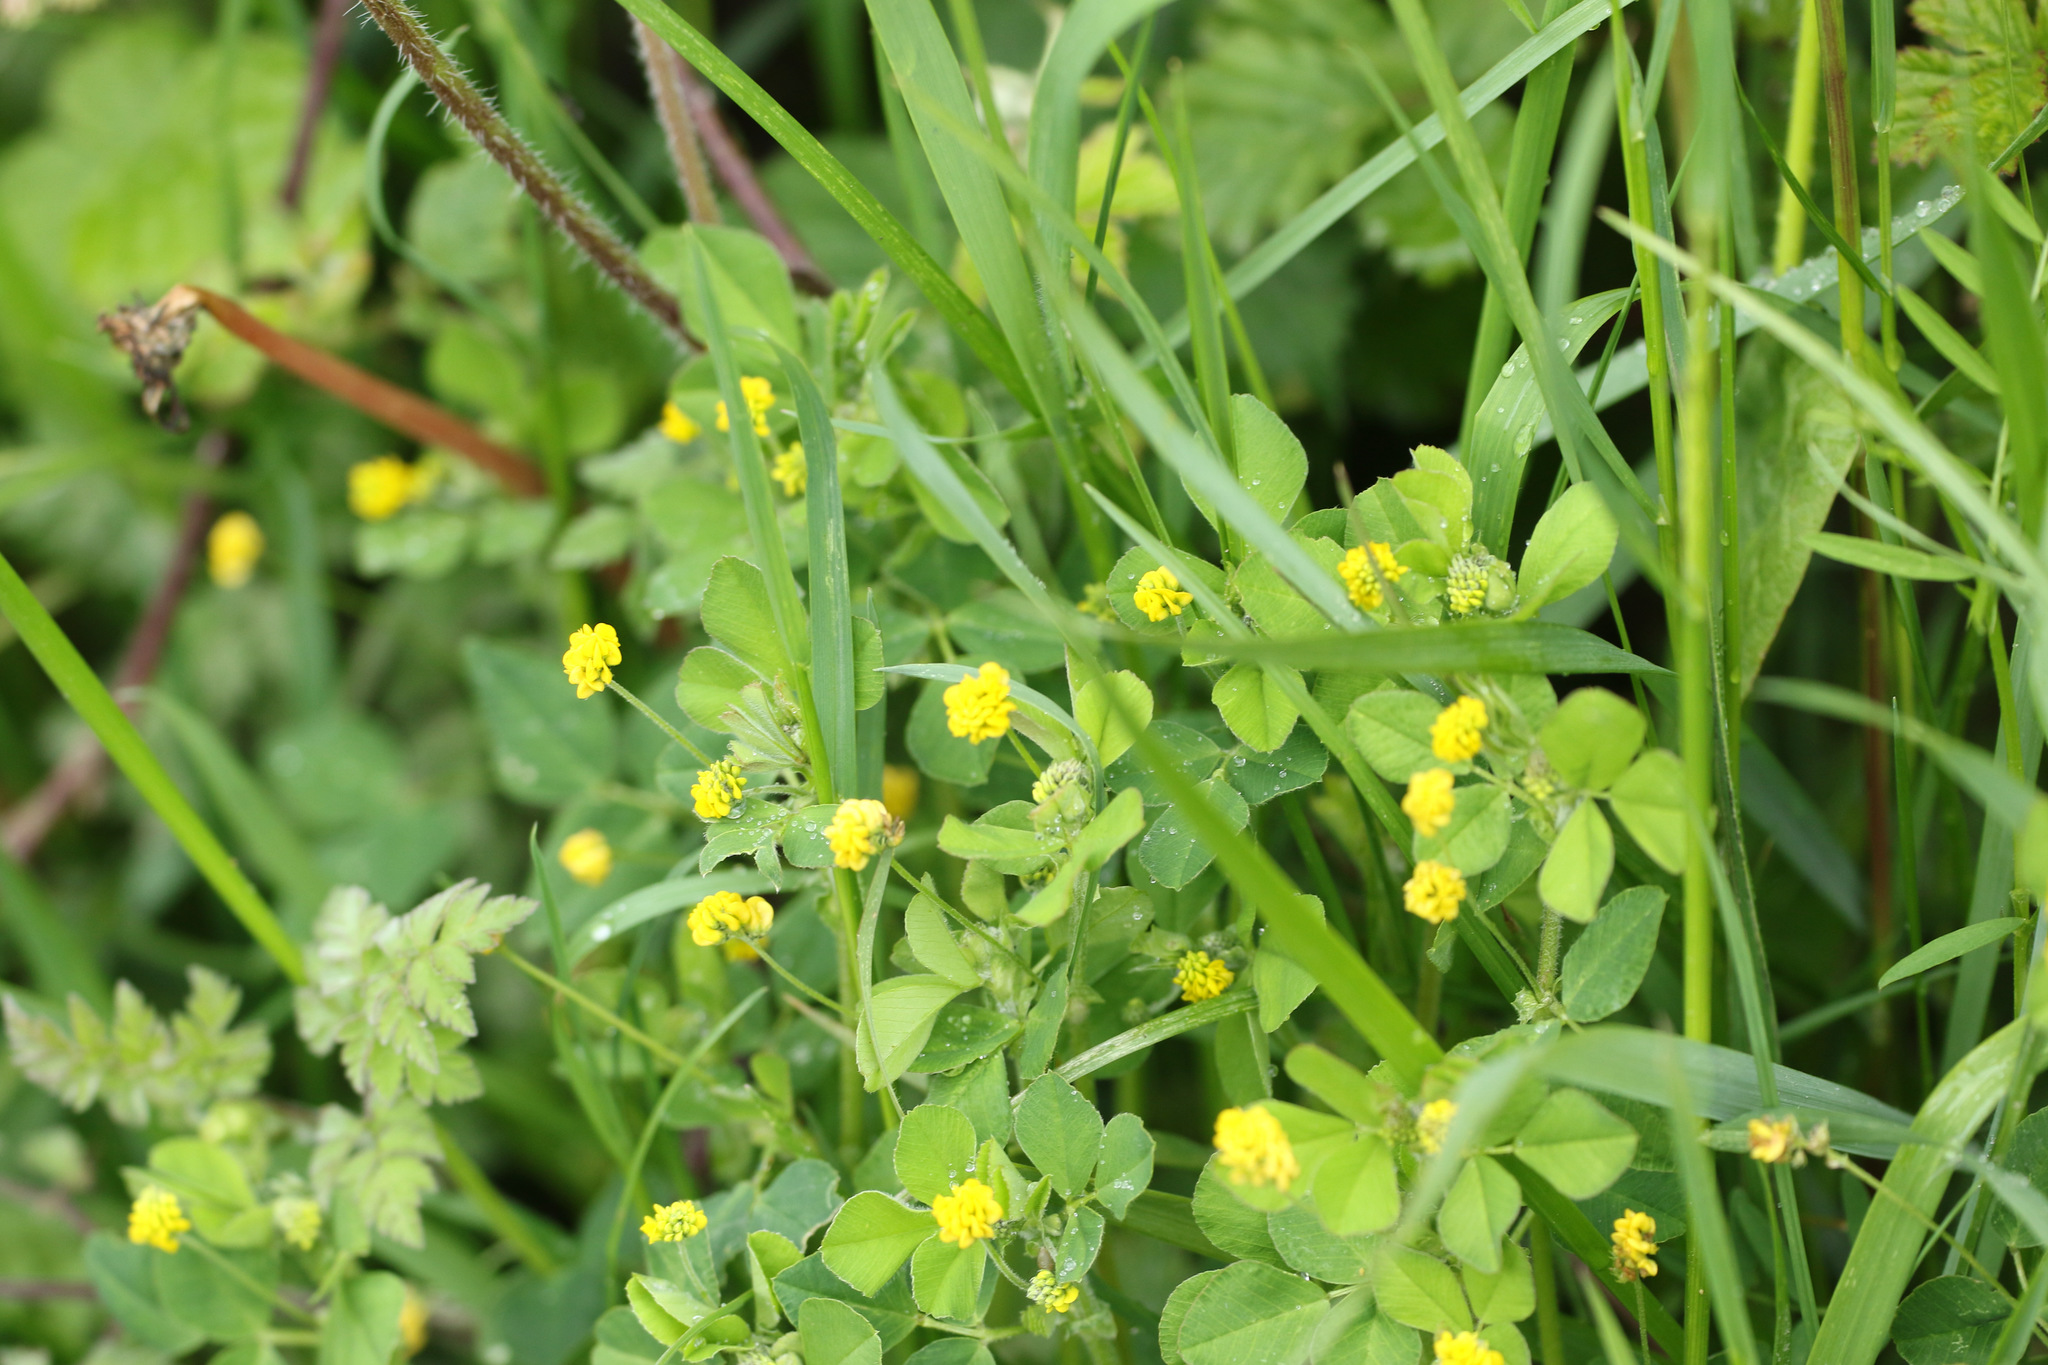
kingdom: Plantae
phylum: Tracheophyta
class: Magnoliopsida
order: Fabales
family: Fabaceae
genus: Medicago
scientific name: Medicago lupulina
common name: Black medick
